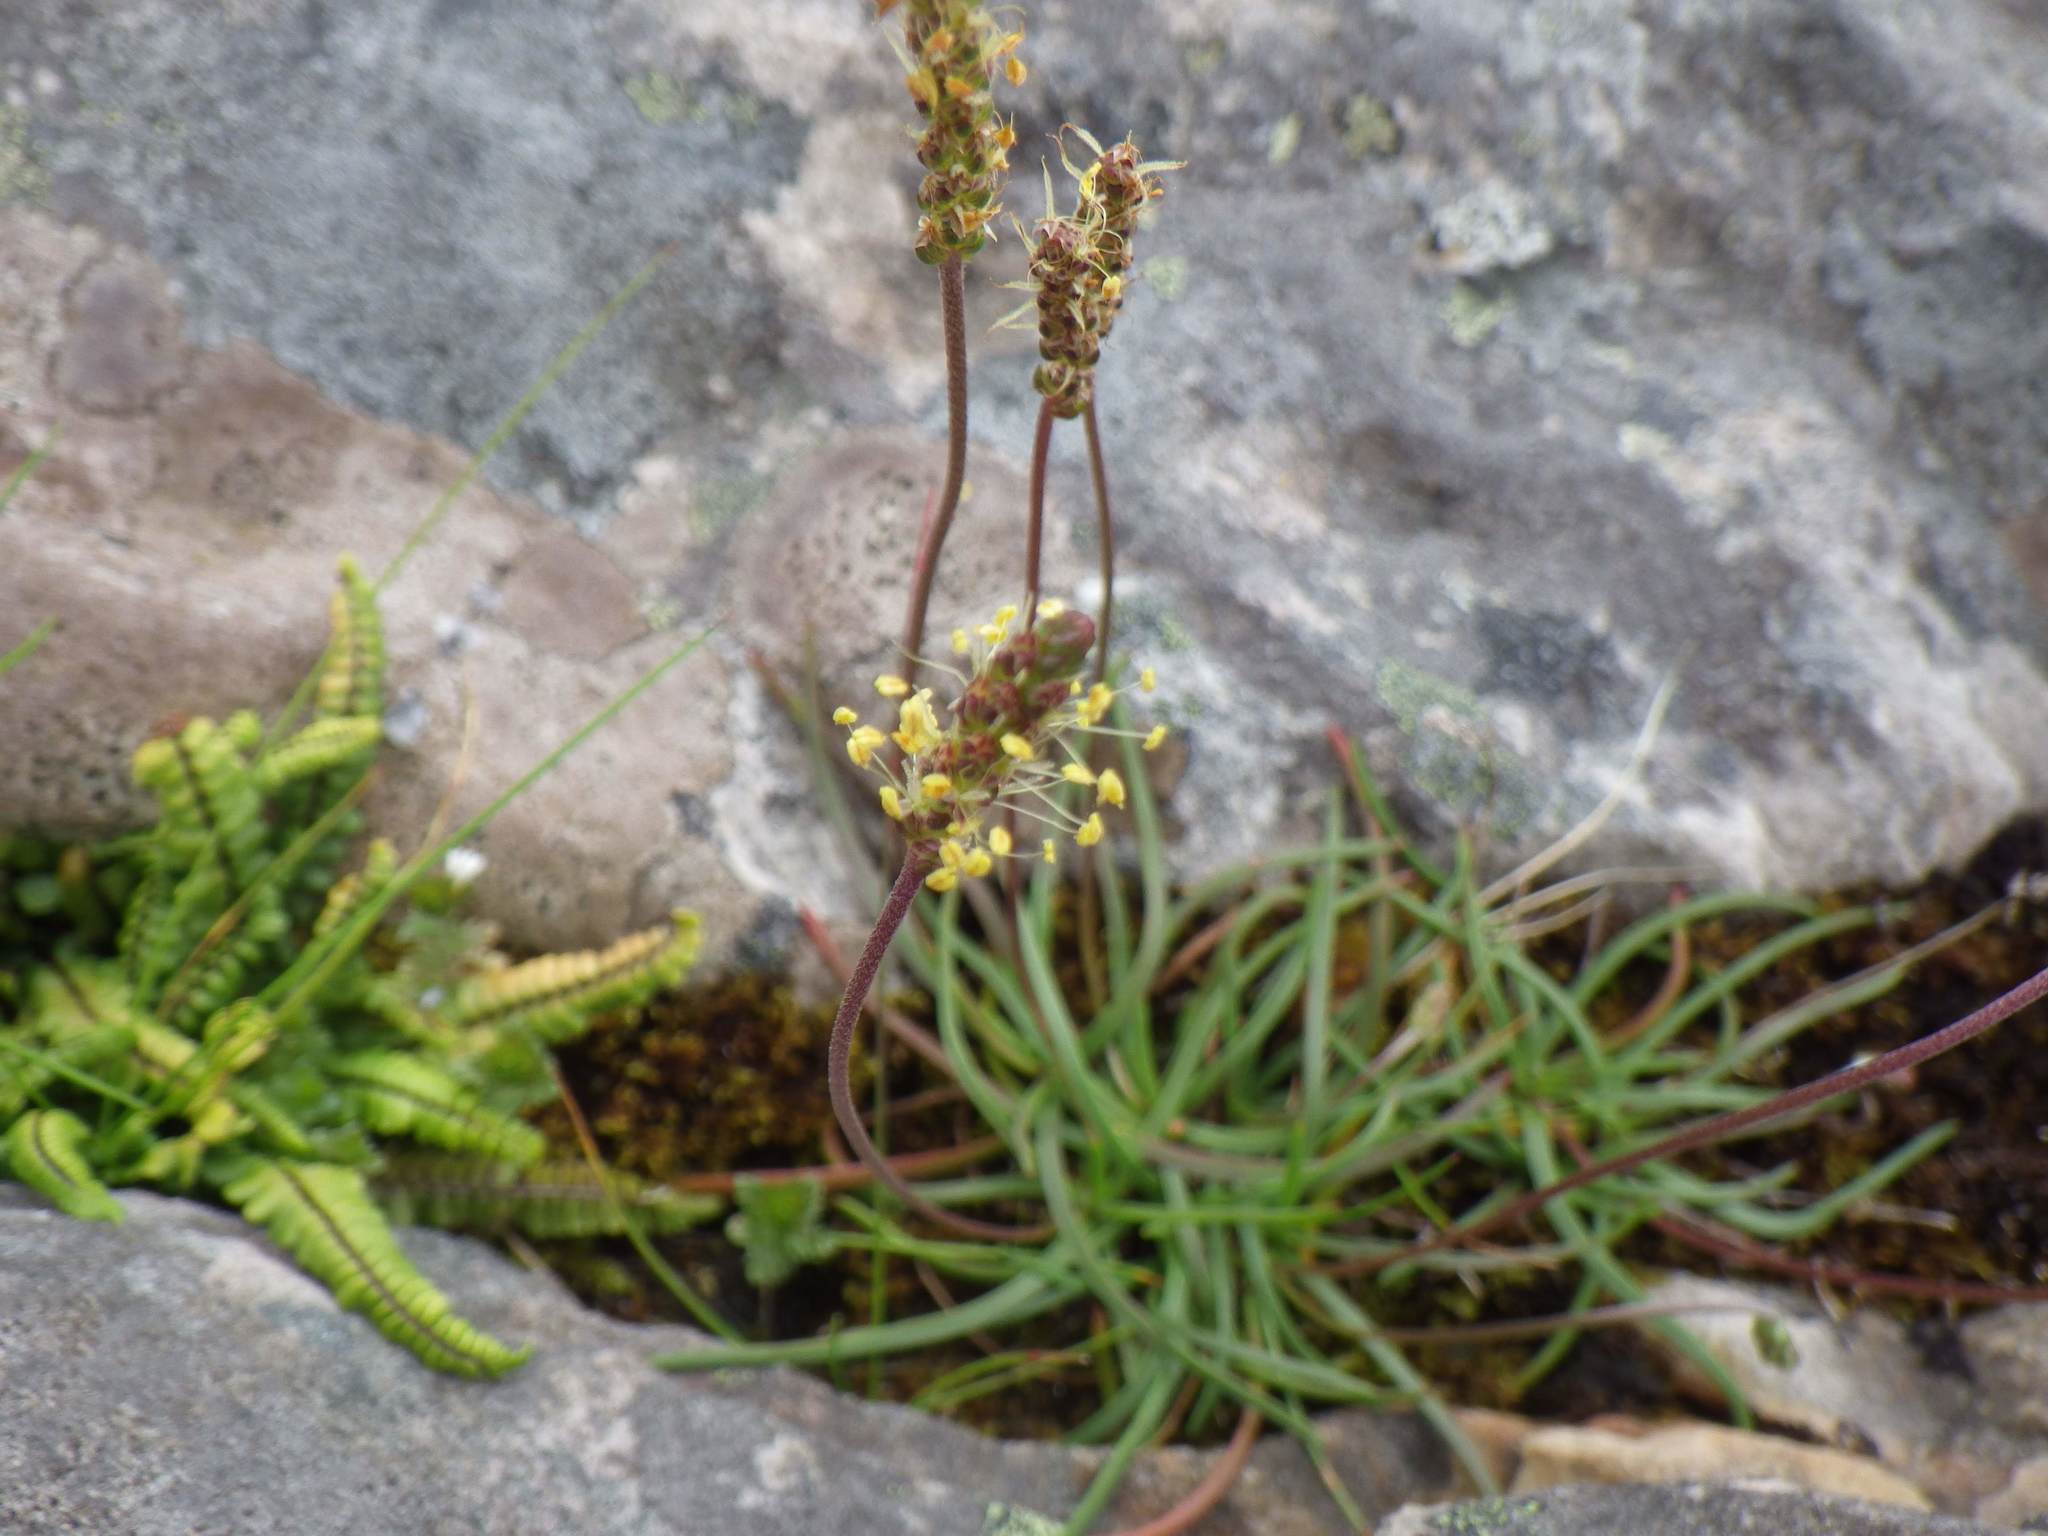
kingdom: Plantae
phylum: Tracheophyta
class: Magnoliopsida
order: Lamiales
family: Plantaginaceae
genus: Plantago
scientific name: Plantago maritima
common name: Sea plantain
